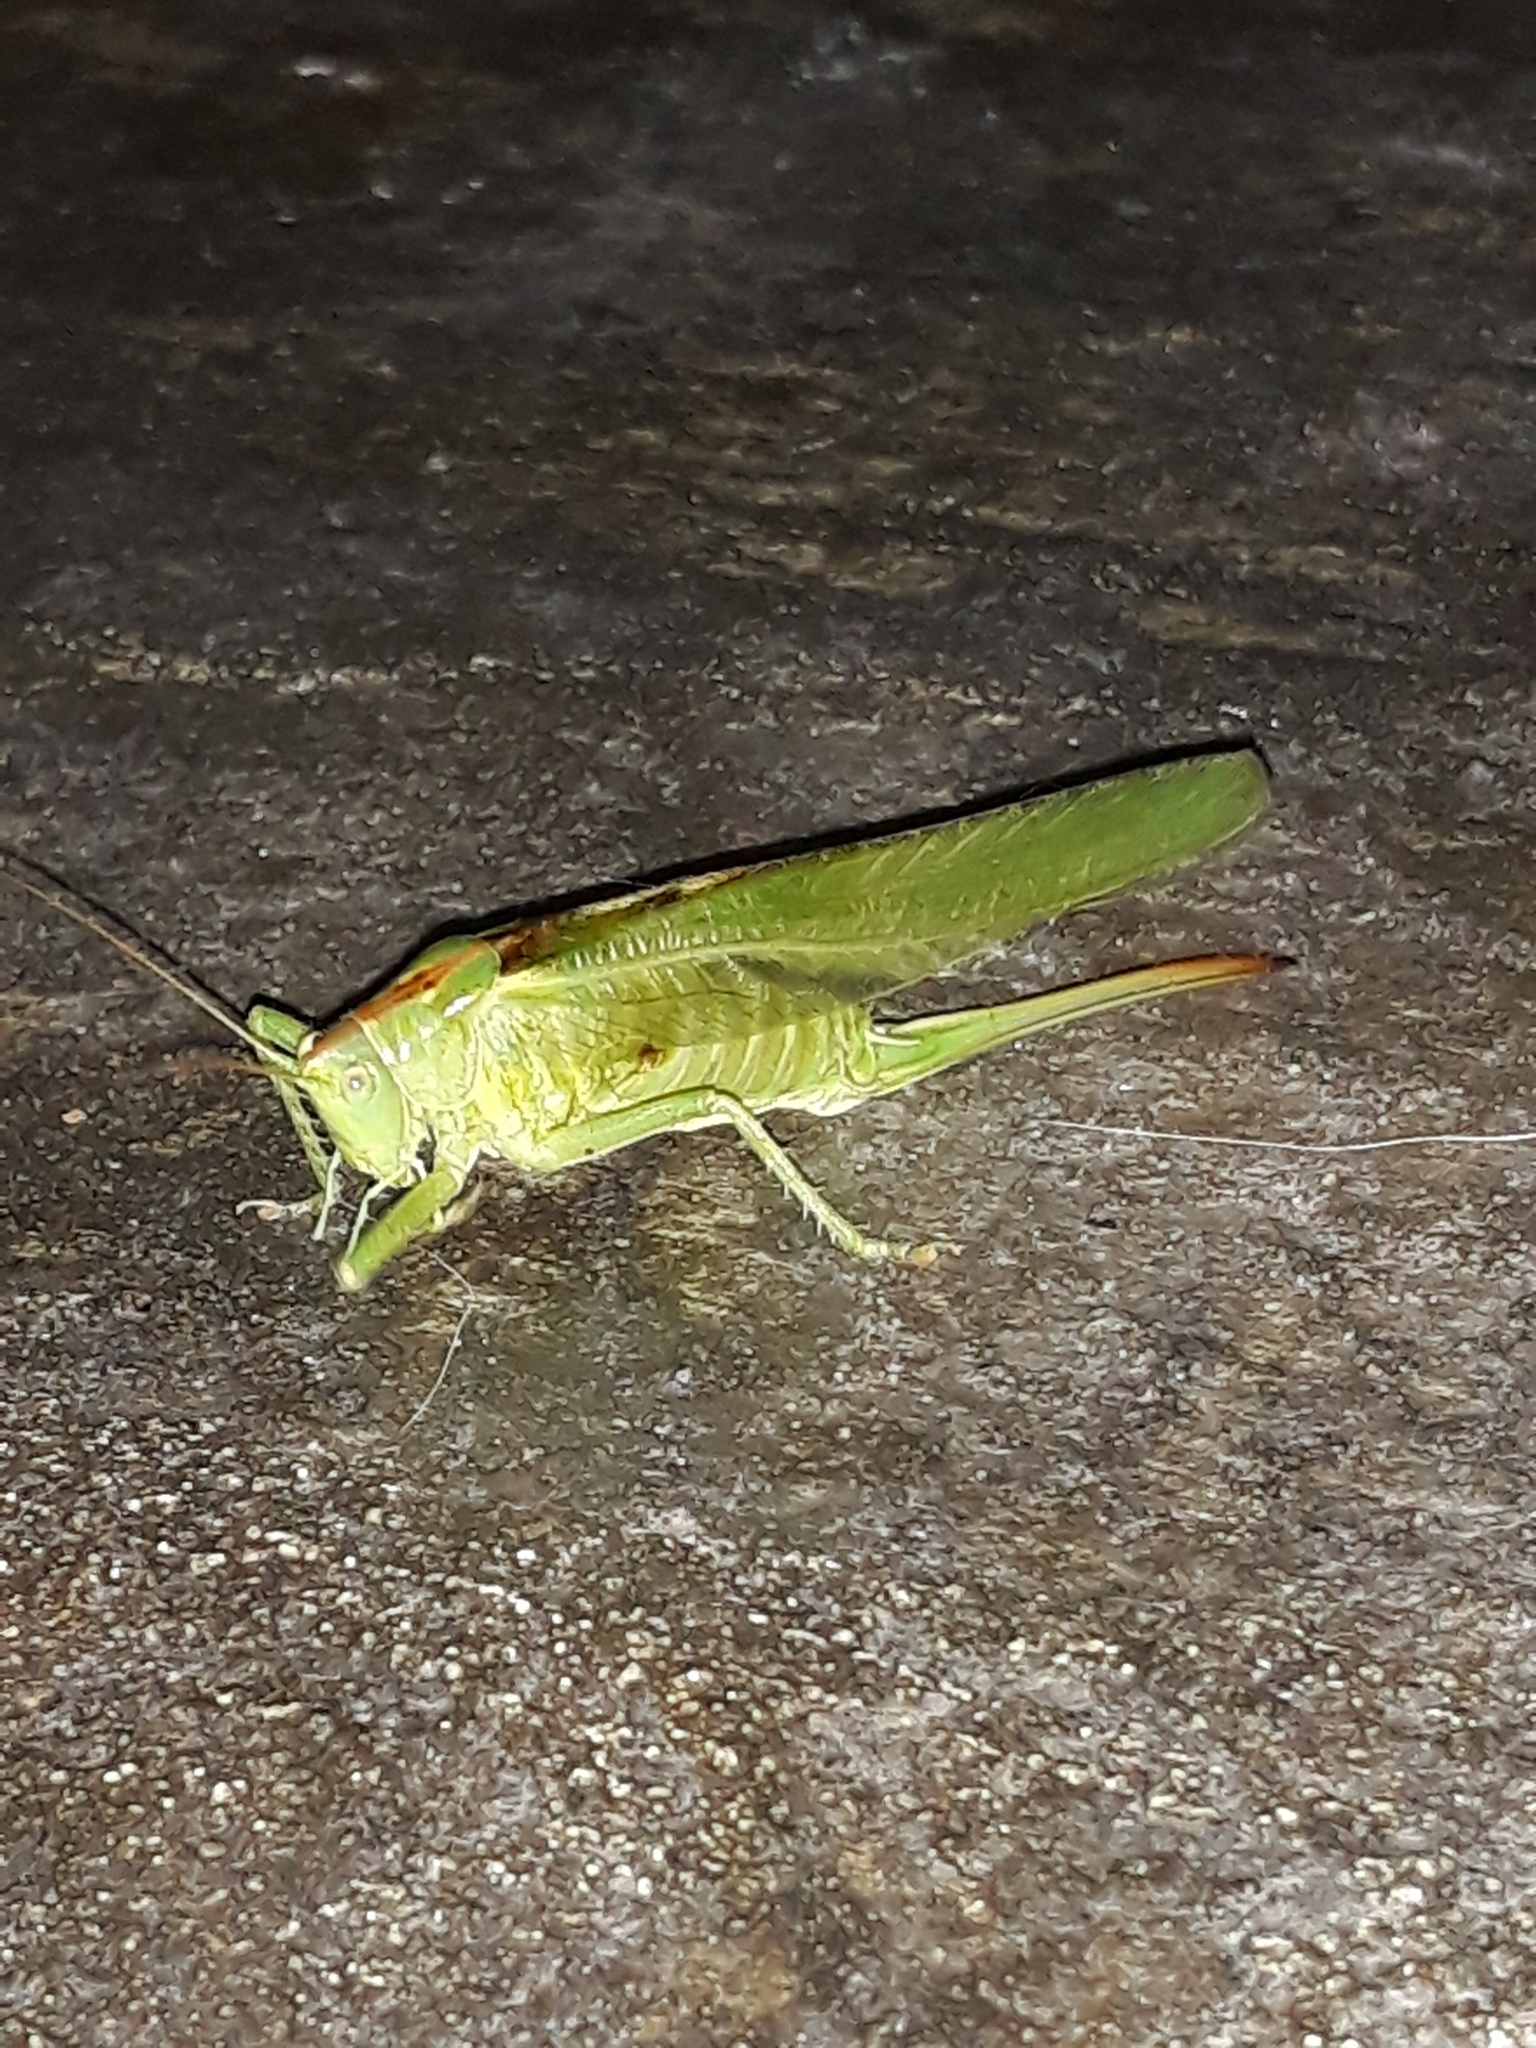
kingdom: Animalia
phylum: Arthropoda
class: Insecta
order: Orthoptera
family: Tettigoniidae
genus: Tettigonia
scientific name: Tettigonia viridissima
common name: Great green bush-cricket
